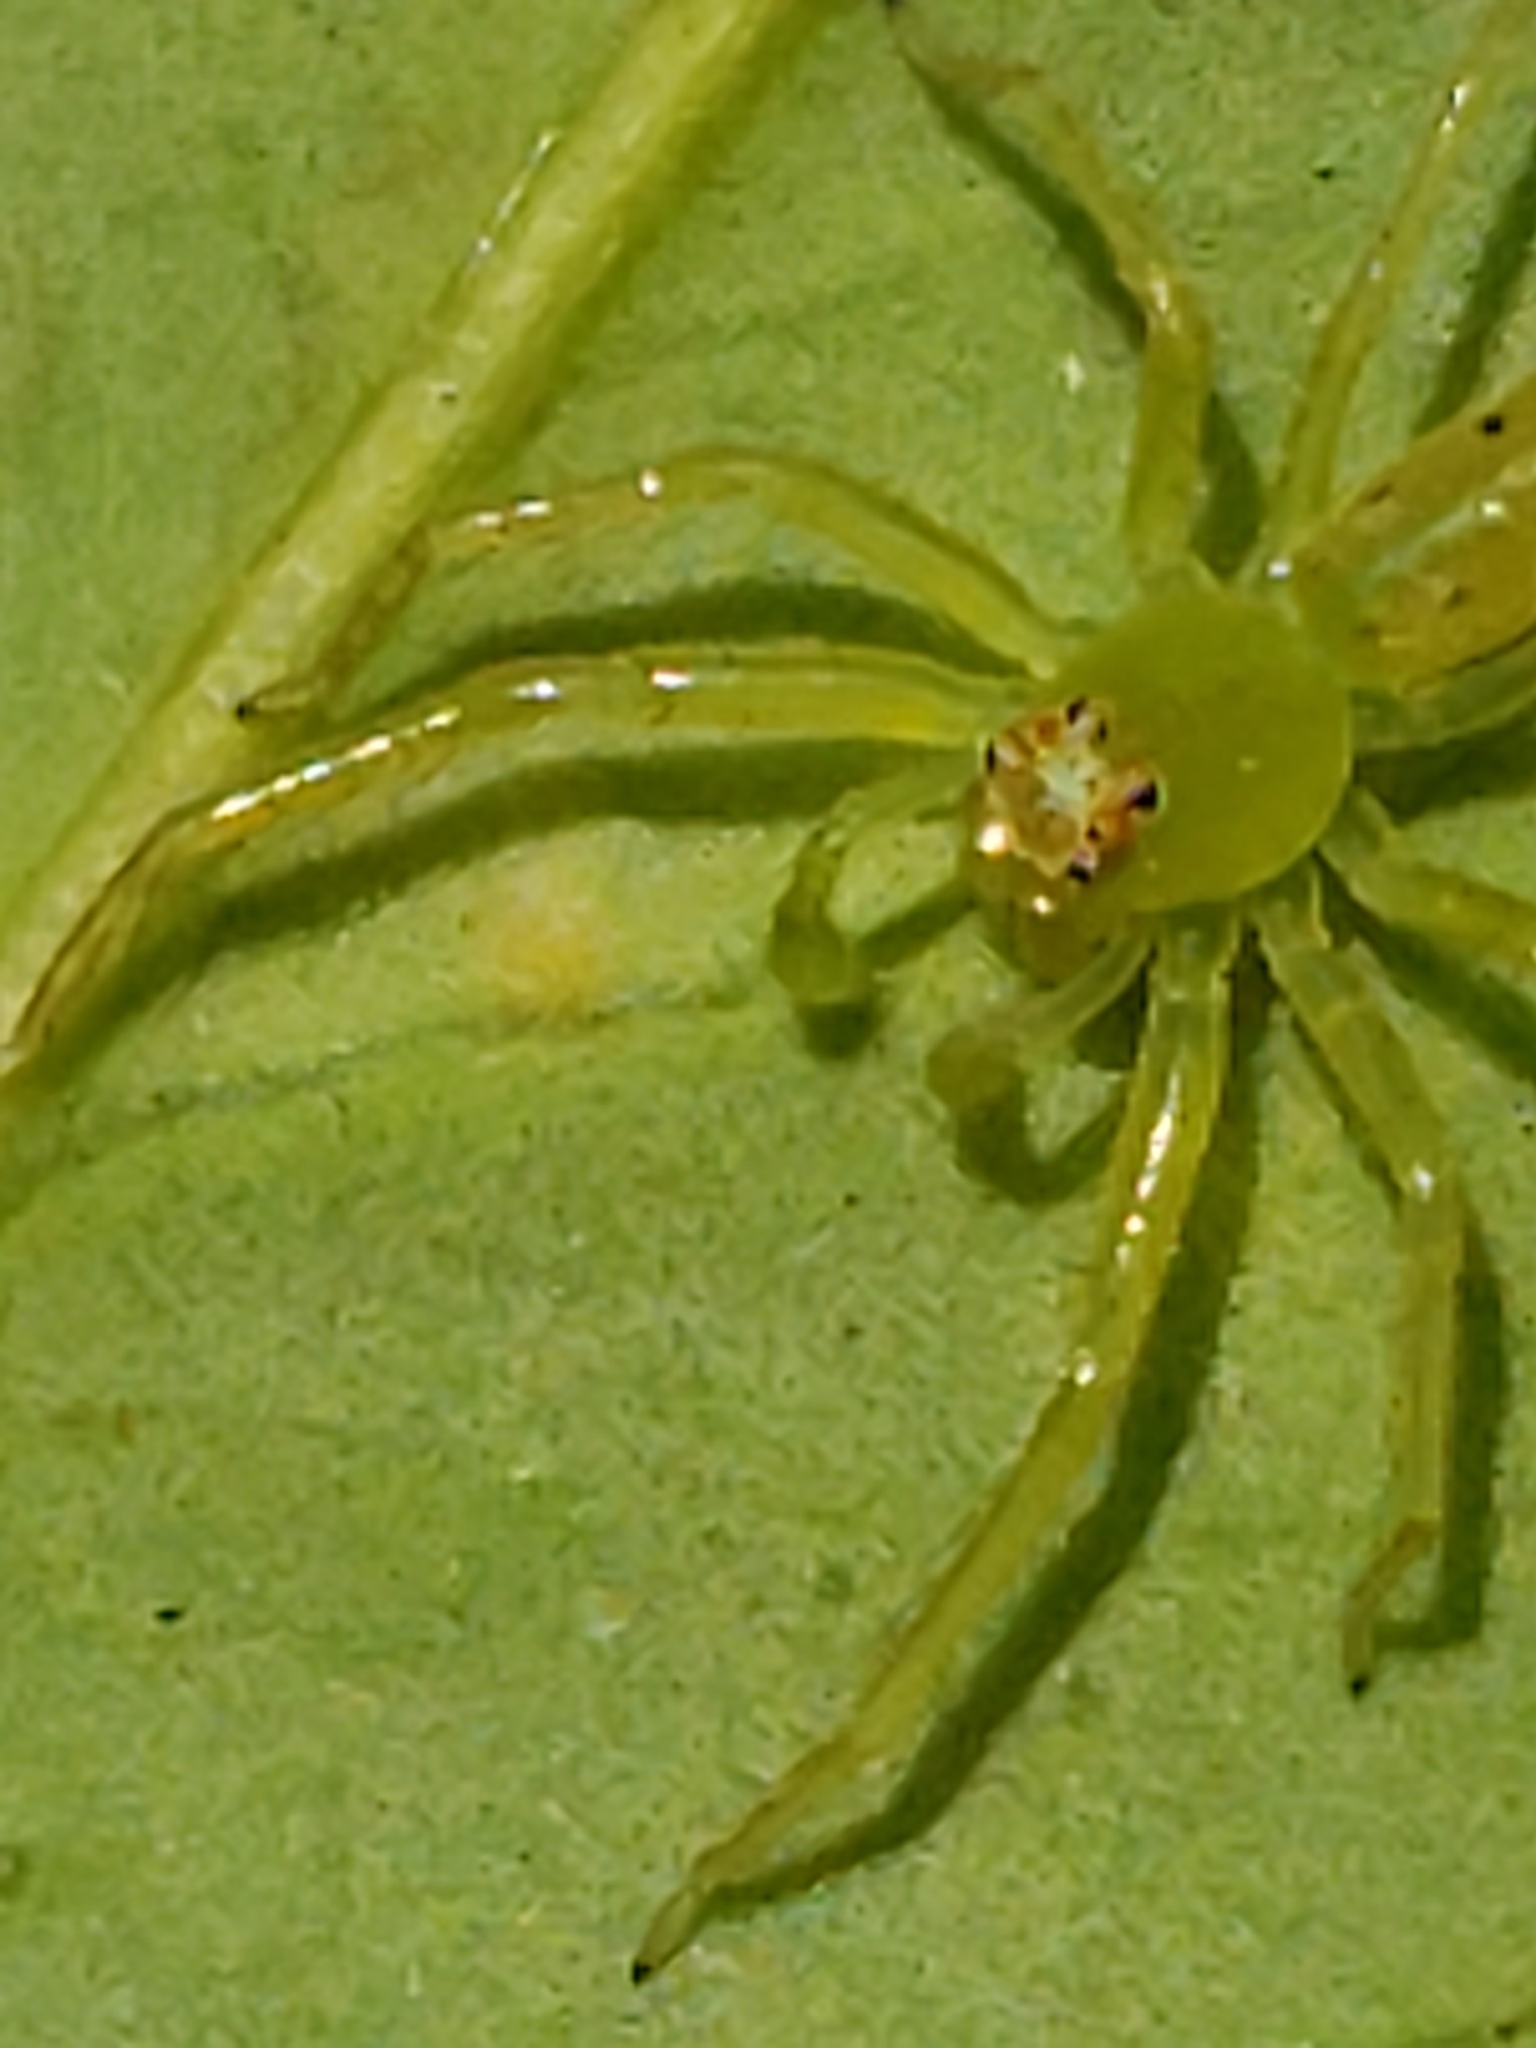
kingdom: Animalia
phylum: Arthropoda
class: Arachnida
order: Araneae
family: Salticidae
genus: Lyssomanes
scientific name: Lyssomanes viridis
